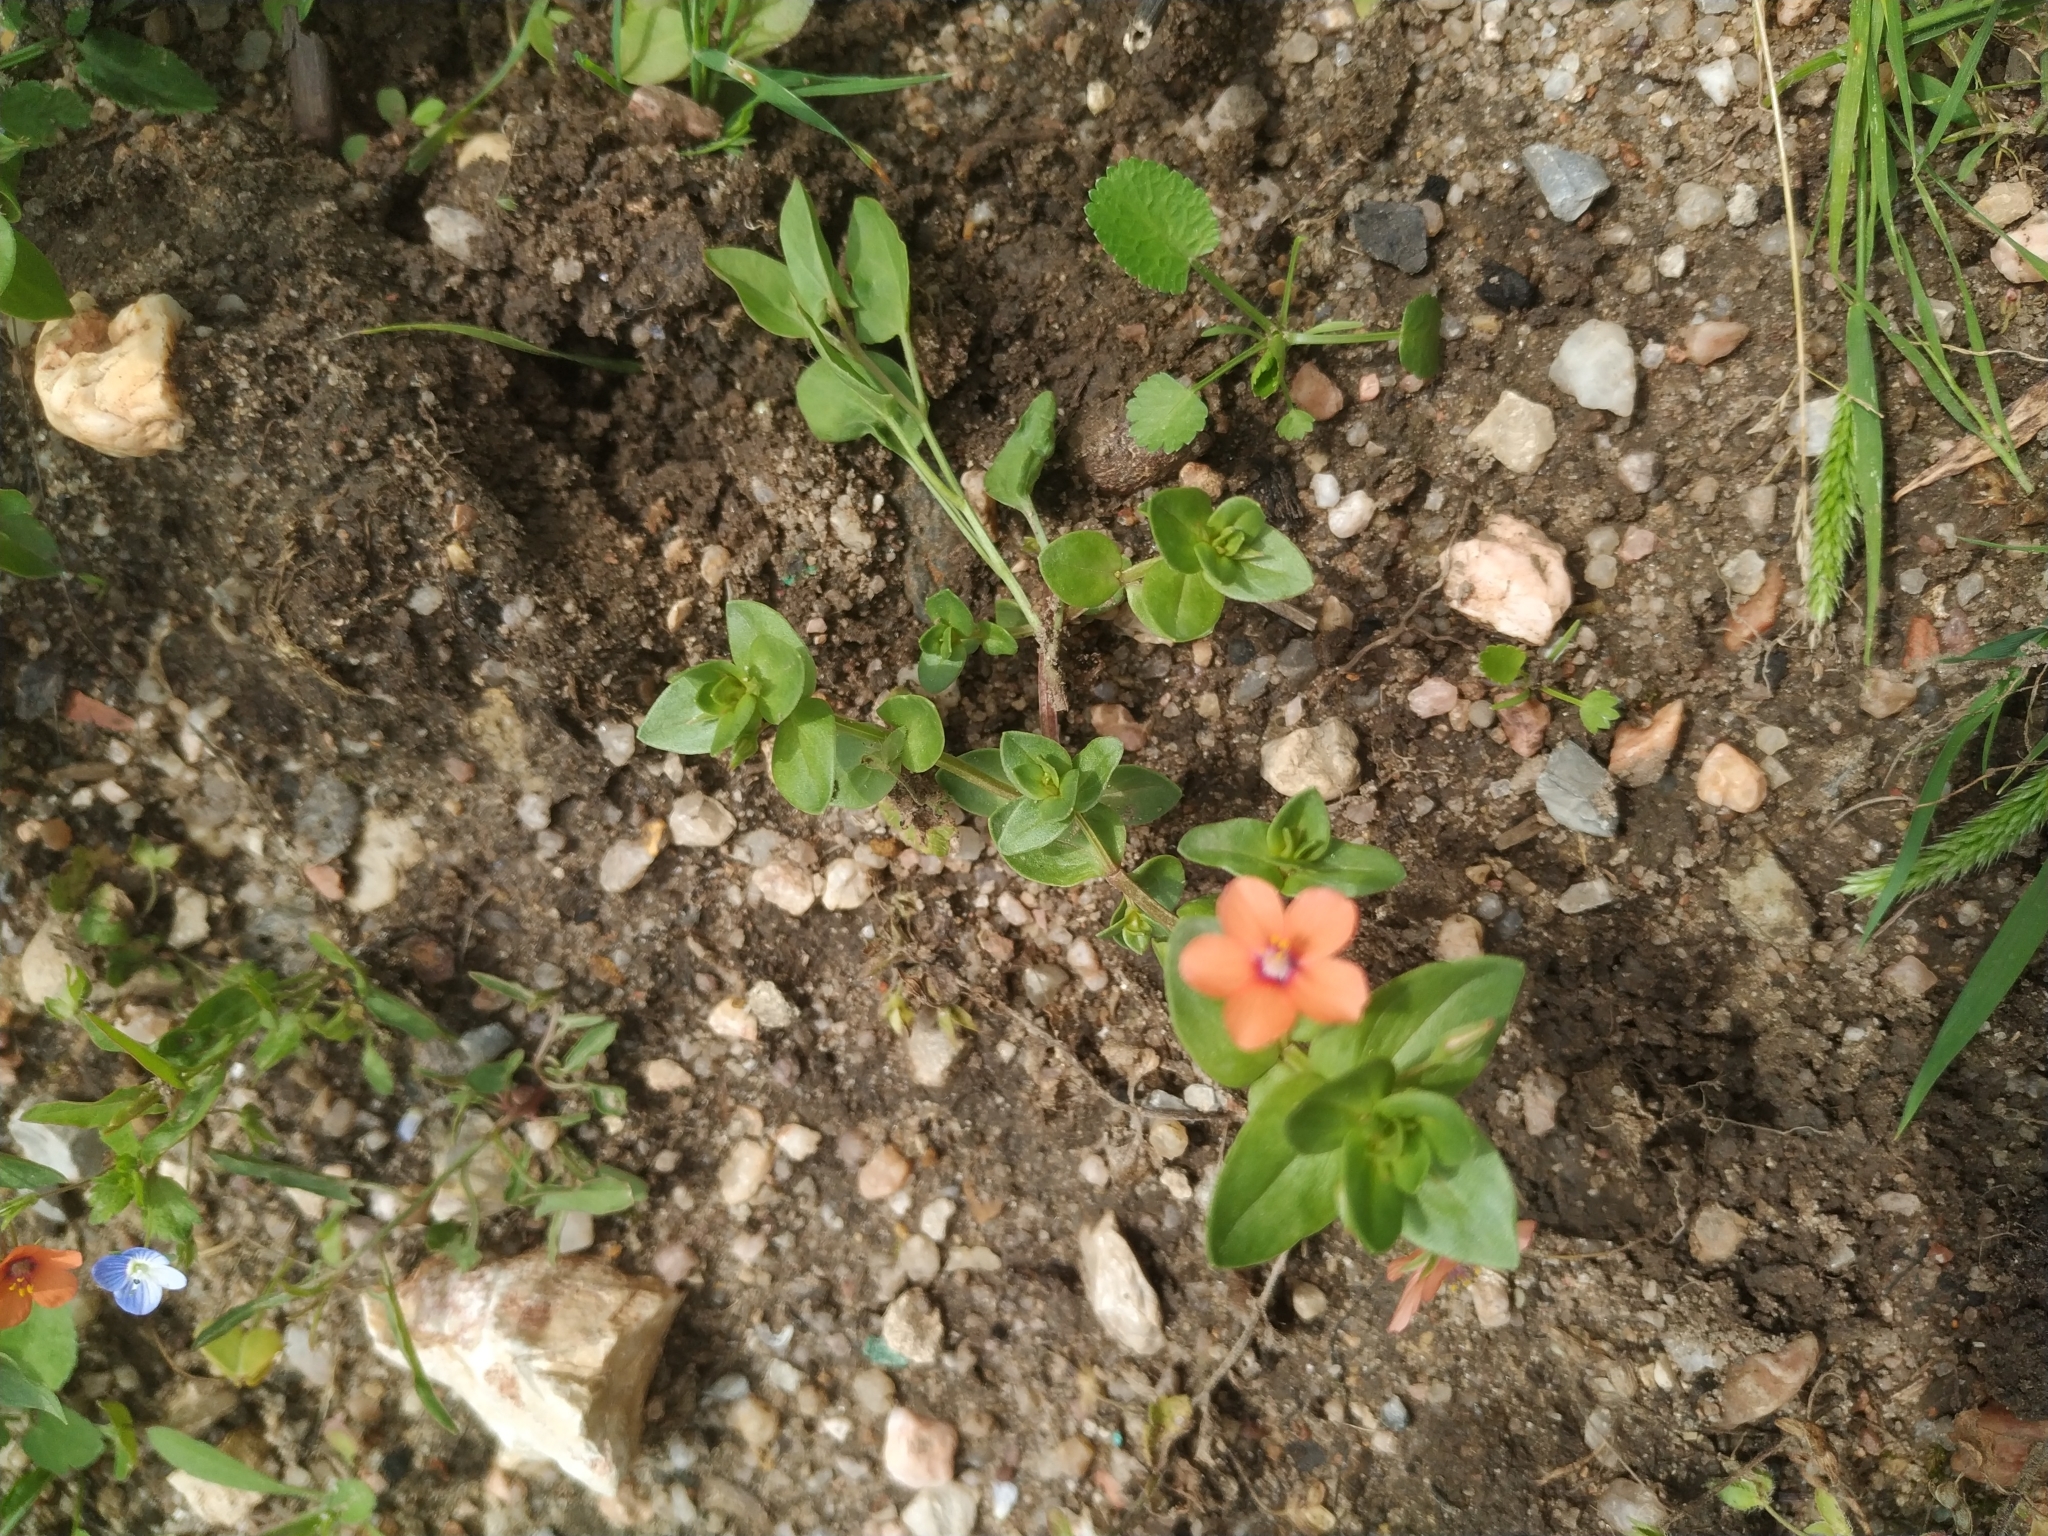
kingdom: Plantae
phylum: Tracheophyta
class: Magnoliopsida
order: Ericales
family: Primulaceae
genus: Lysimachia
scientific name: Lysimachia arvensis
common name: Scarlet pimpernel
